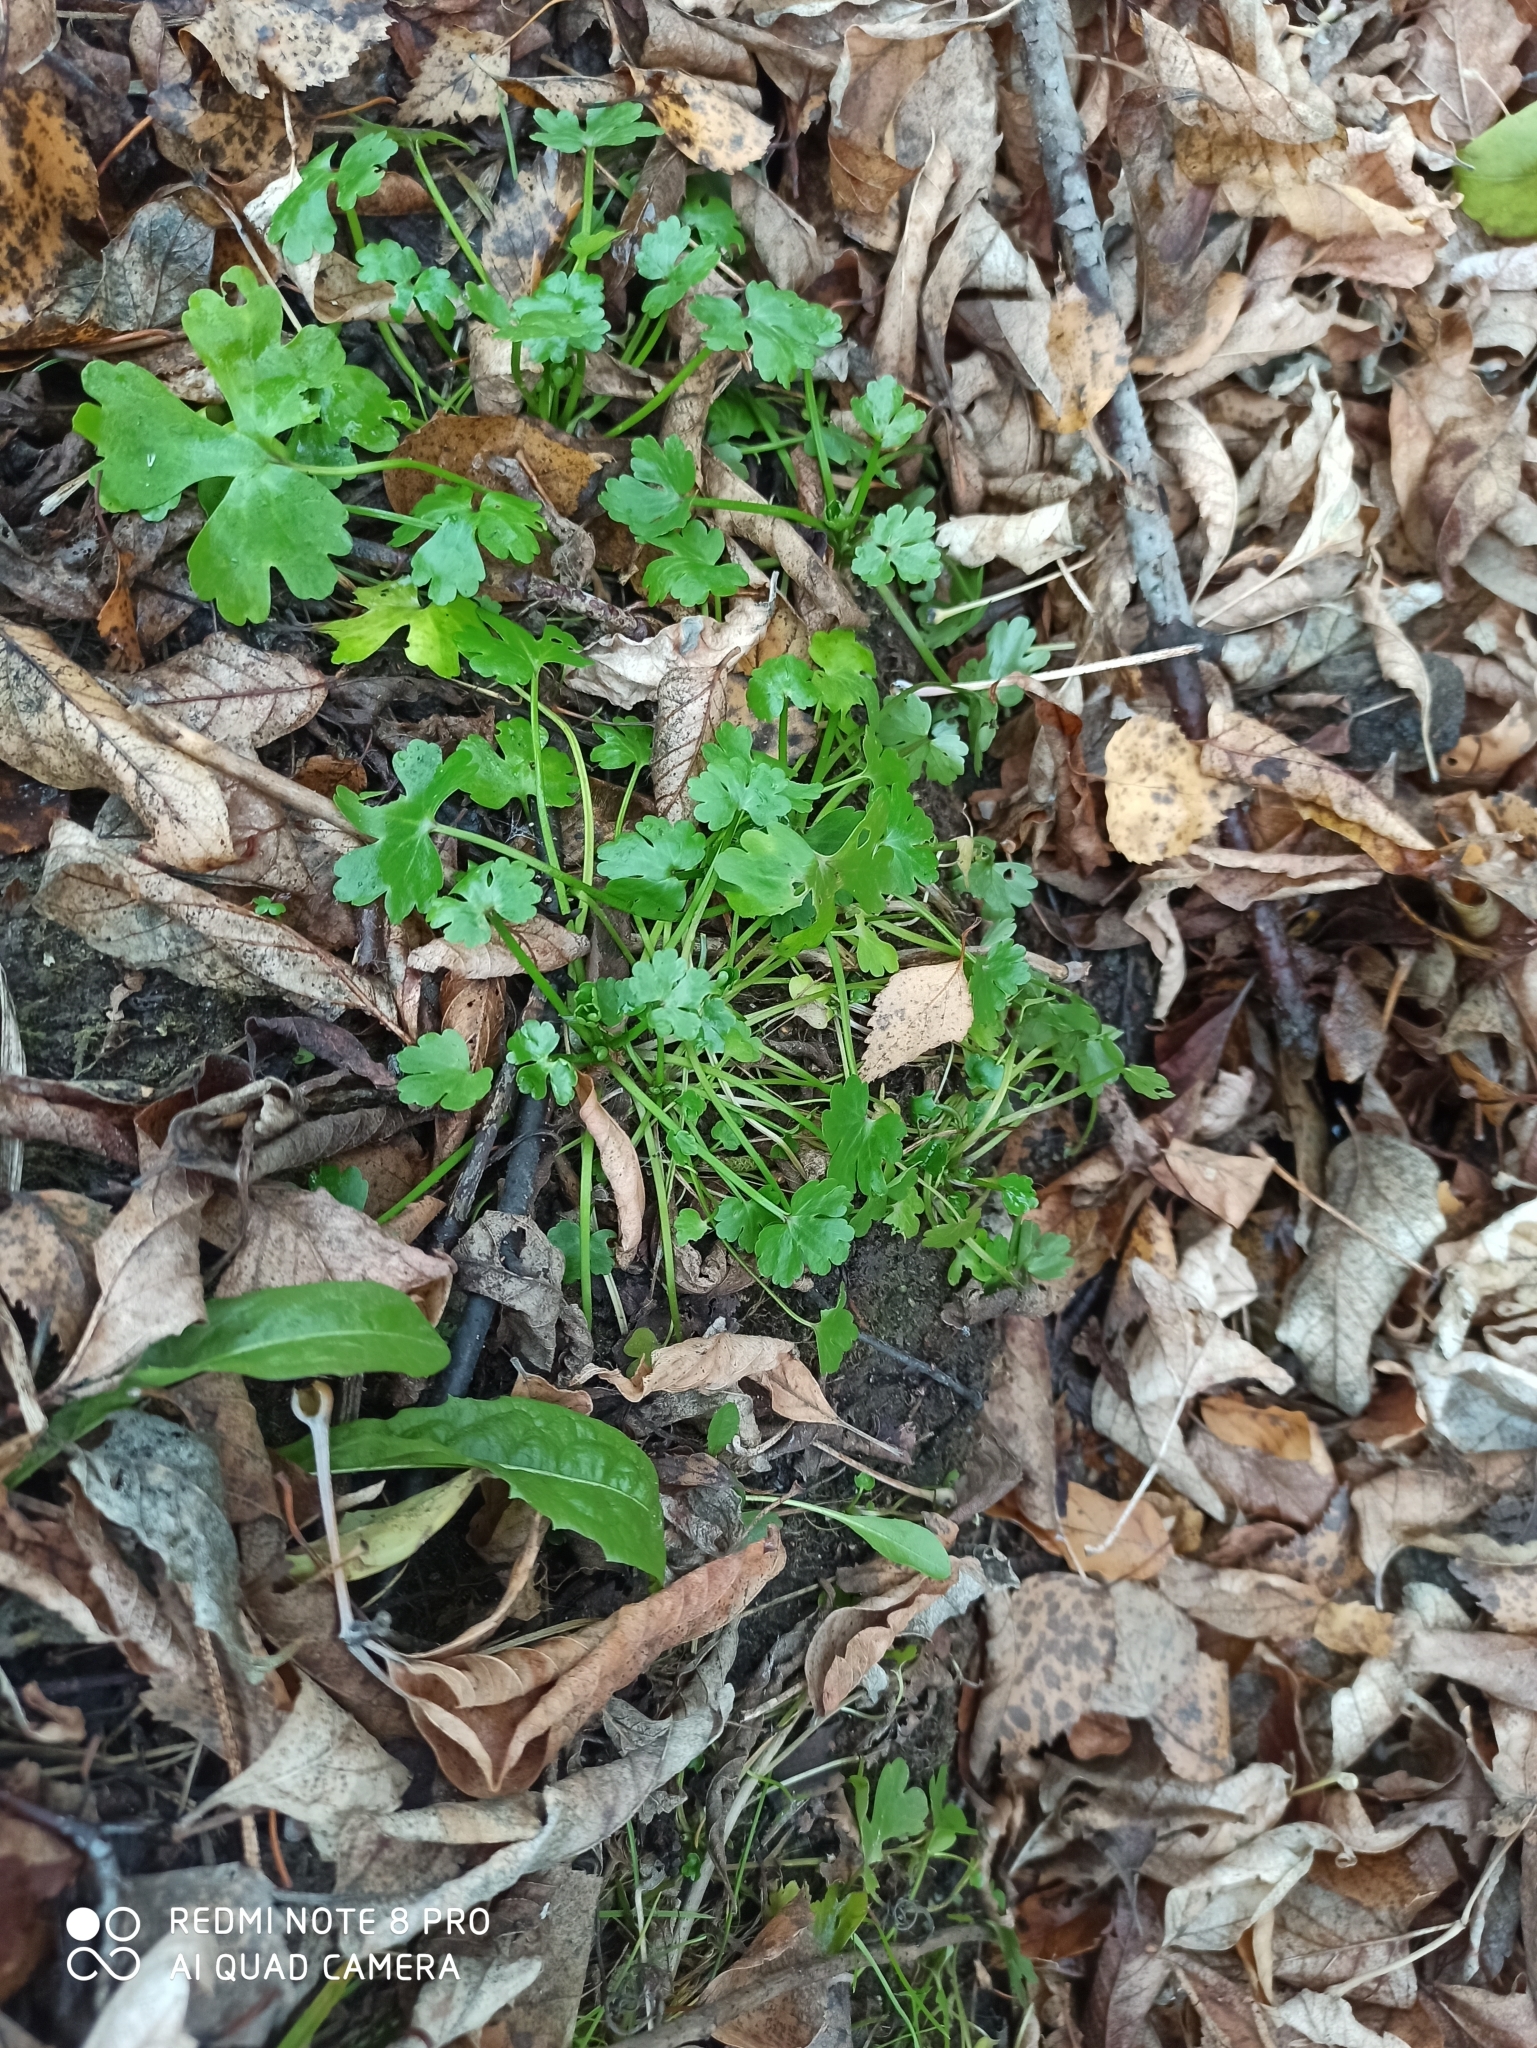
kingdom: Plantae
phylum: Tracheophyta
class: Magnoliopsida
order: Ranunculales
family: Ranunculaceae
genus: Ranunculus
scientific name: Ranunculus sceleratus
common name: Celery-leaved buttercup
